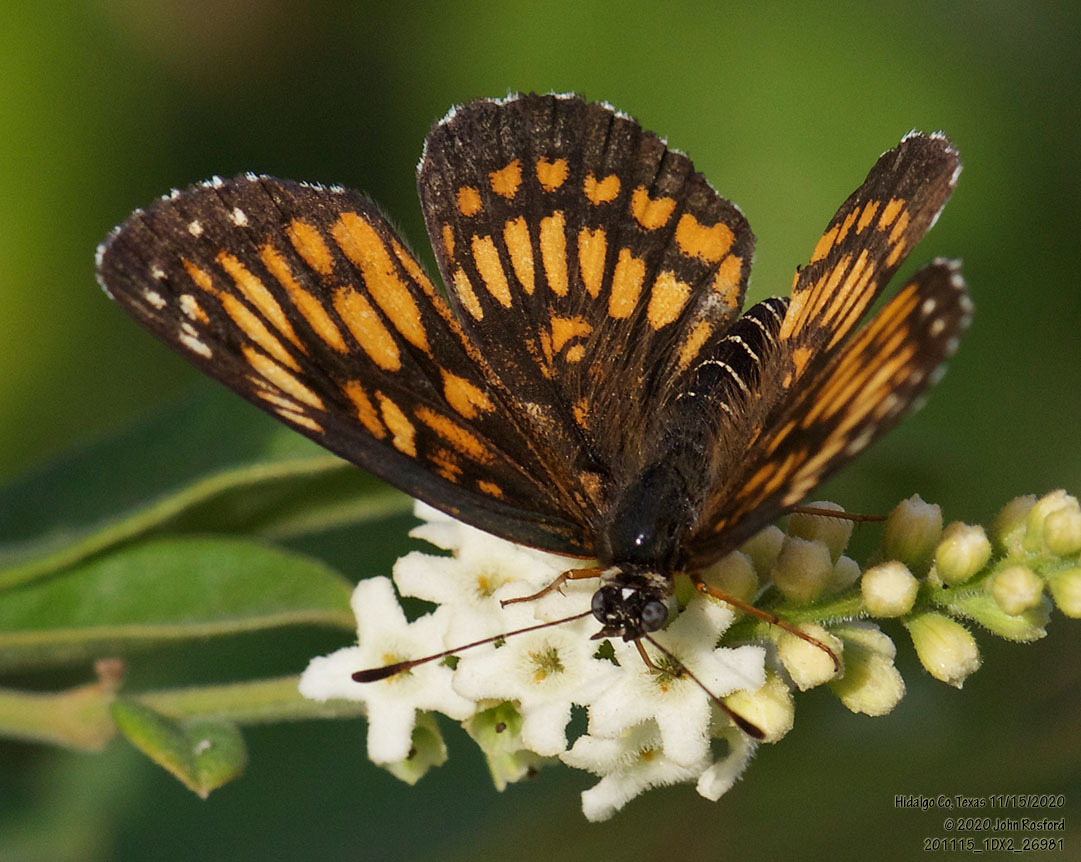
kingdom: Animalia
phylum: Arthropoda
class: Insecta
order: Lepidoptera
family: Nymphalidae
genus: Thessalia
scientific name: Thessalia theona
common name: Nymphalid moth
